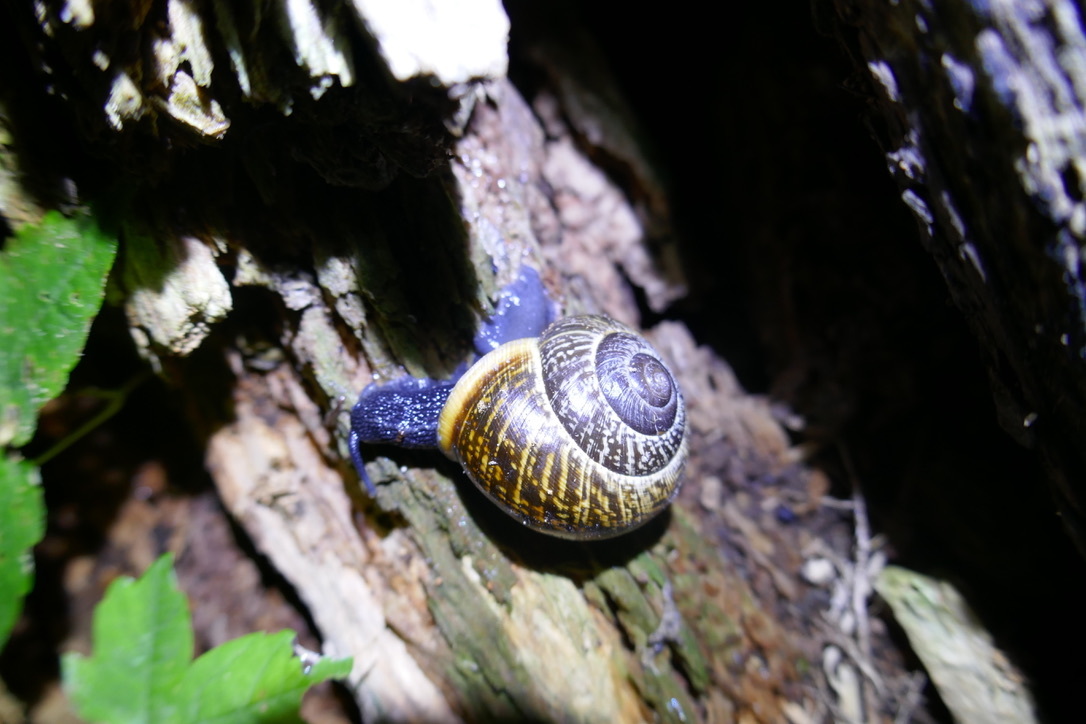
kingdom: Animalia
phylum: Mollusca
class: Gastropoda
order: Stylommatophora
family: Helicidae
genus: Arianta
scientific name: Arianta arbustorum
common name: Copse snail
